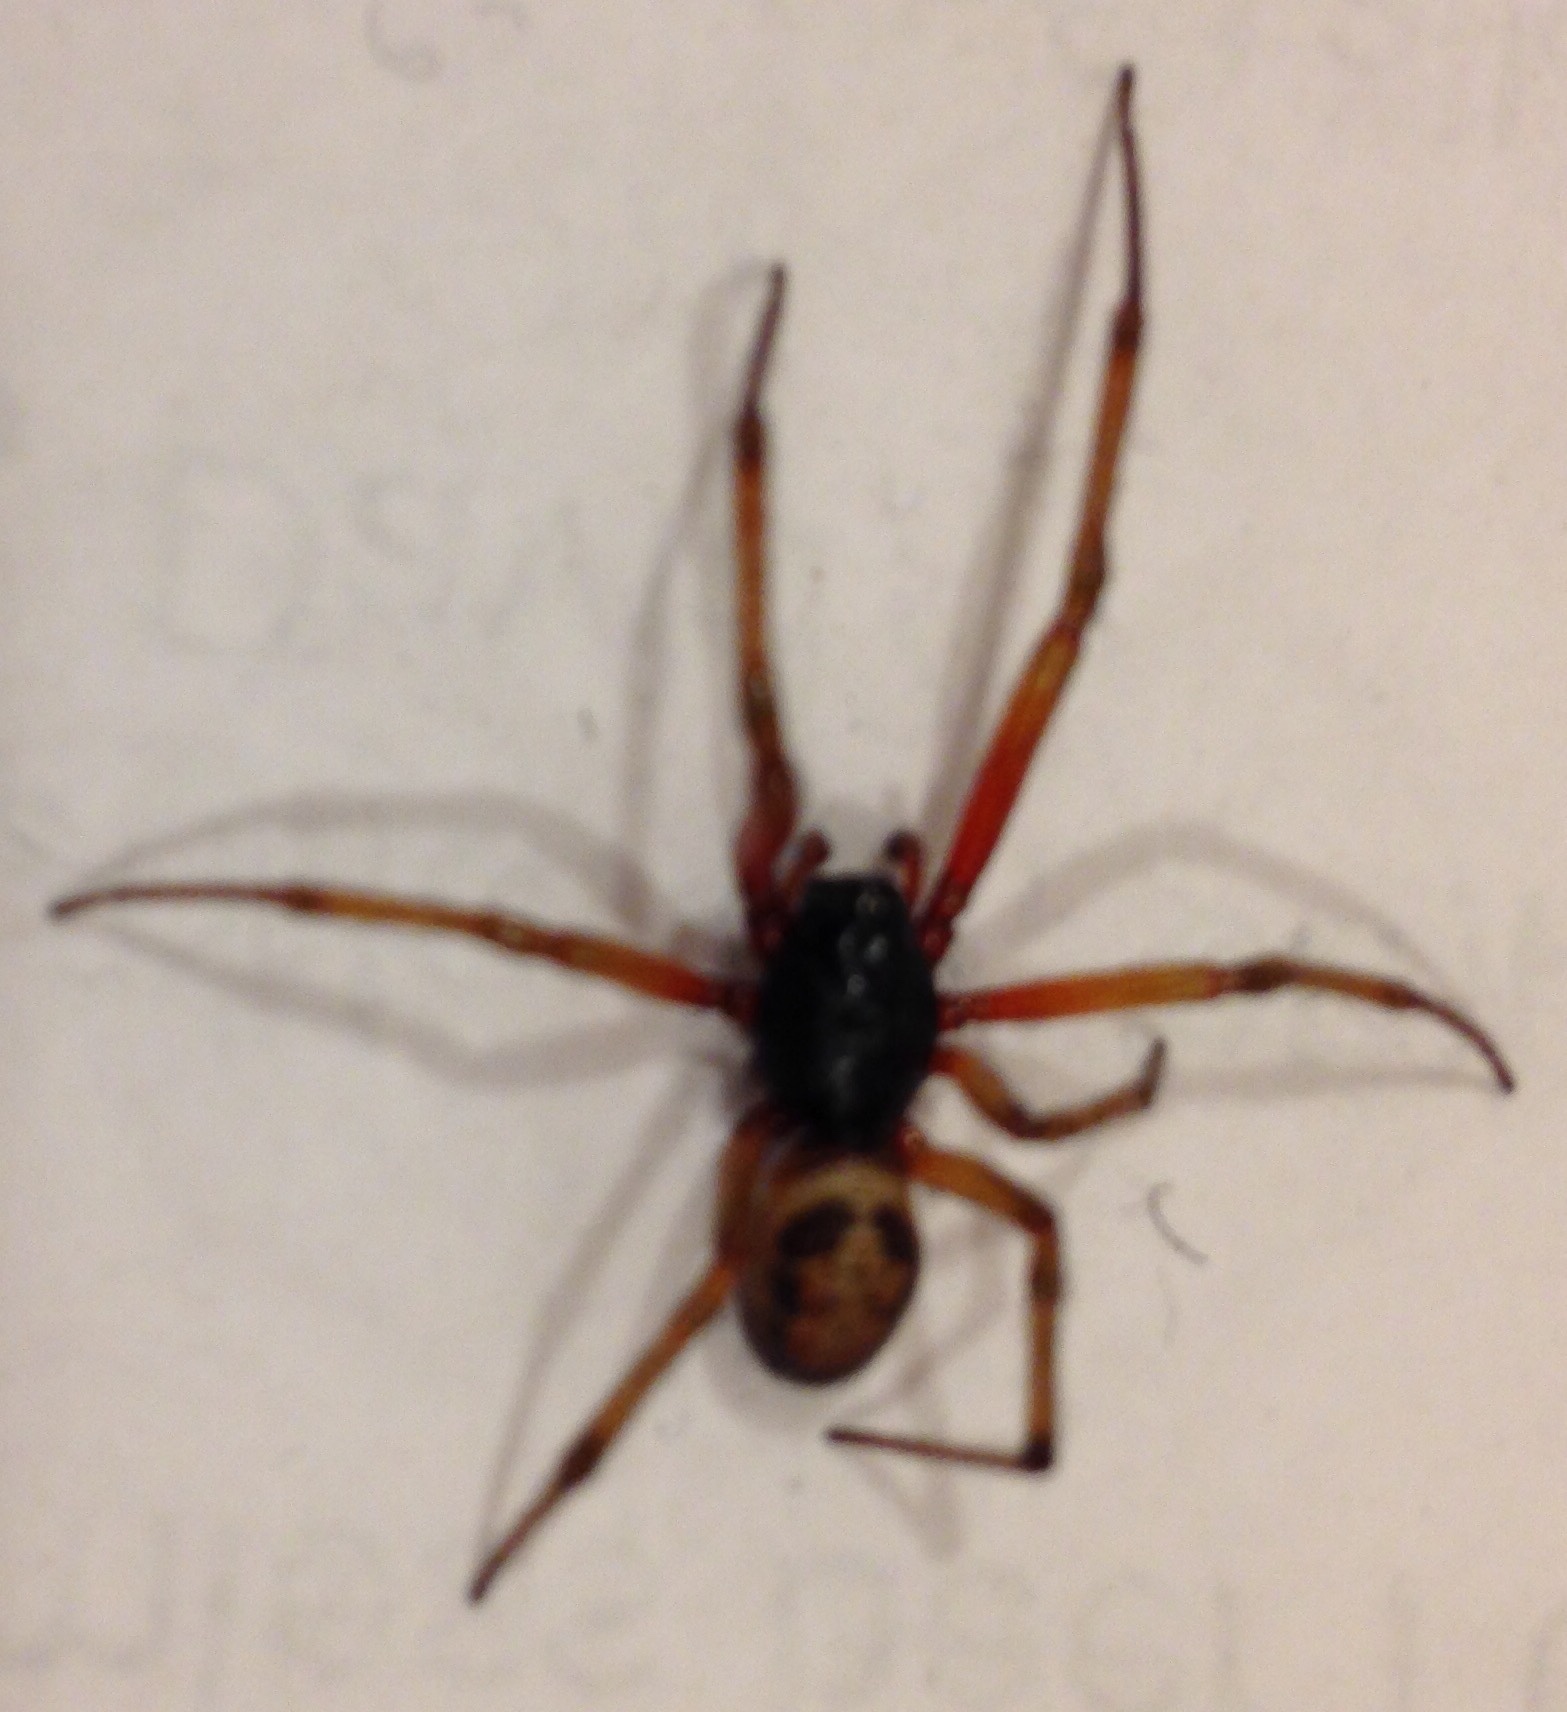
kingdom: Animalia
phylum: Arthropoda
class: Arachnida
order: Araneae
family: Theridiidae
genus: Steatoda
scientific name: Steatoda nobilis
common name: Cobweb weaver
